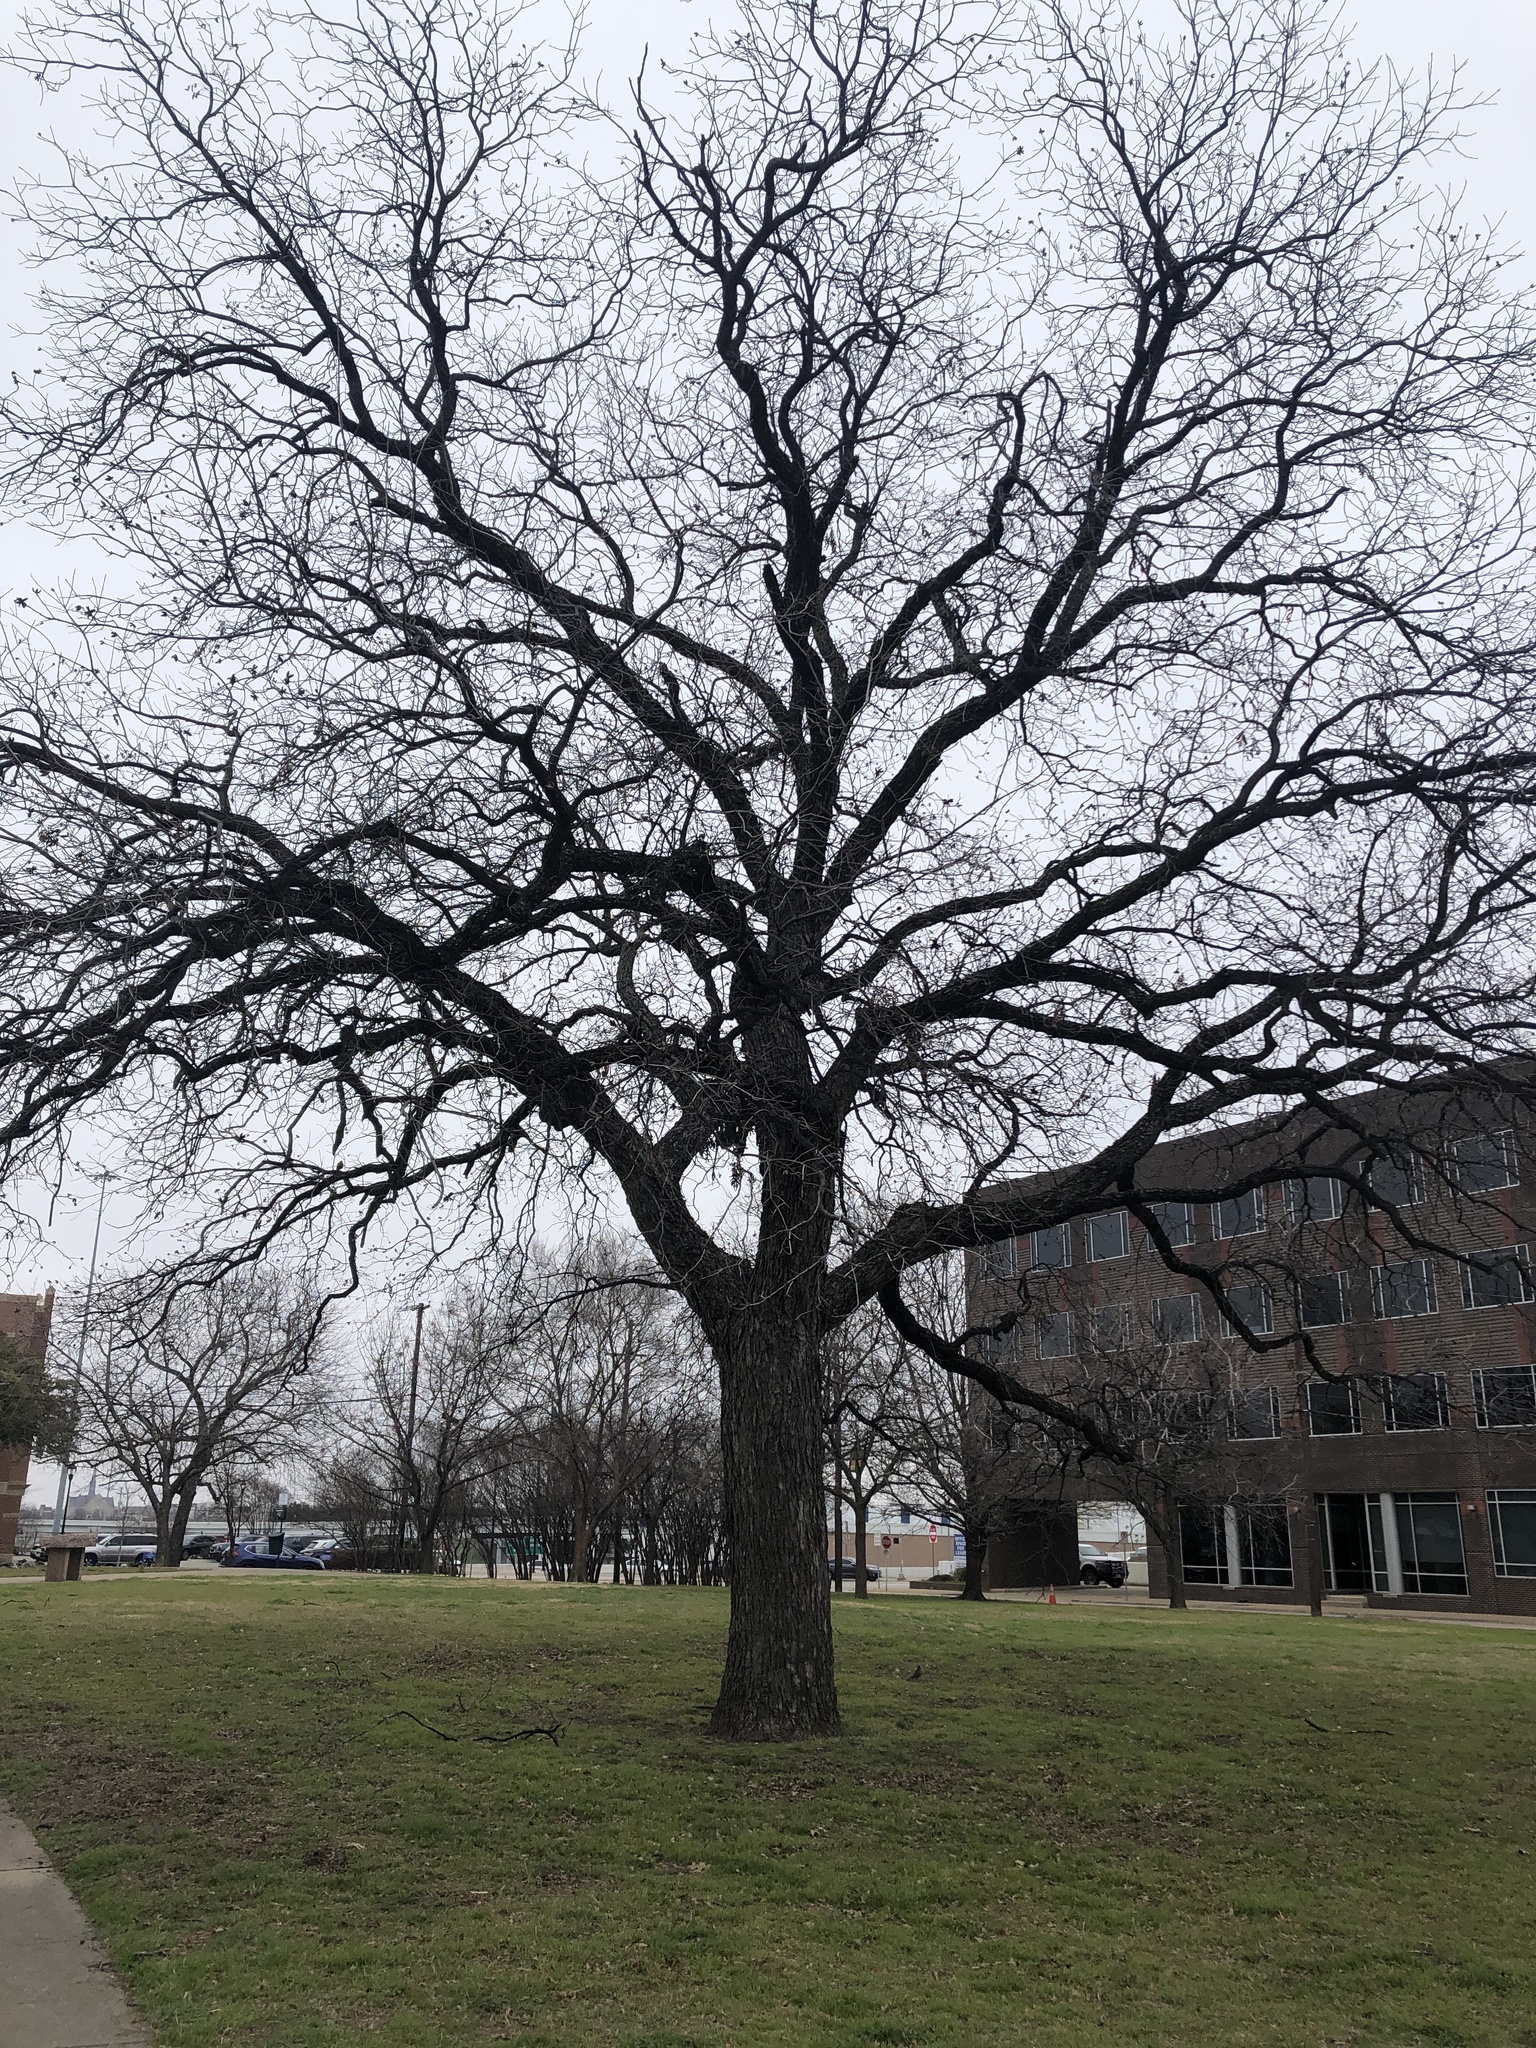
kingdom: Plantae
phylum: Tracheophyta
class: Magnoliopsida
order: Fagales
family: Juglandaceae
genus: Carya
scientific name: Carya illinoinensis
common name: Pecan
